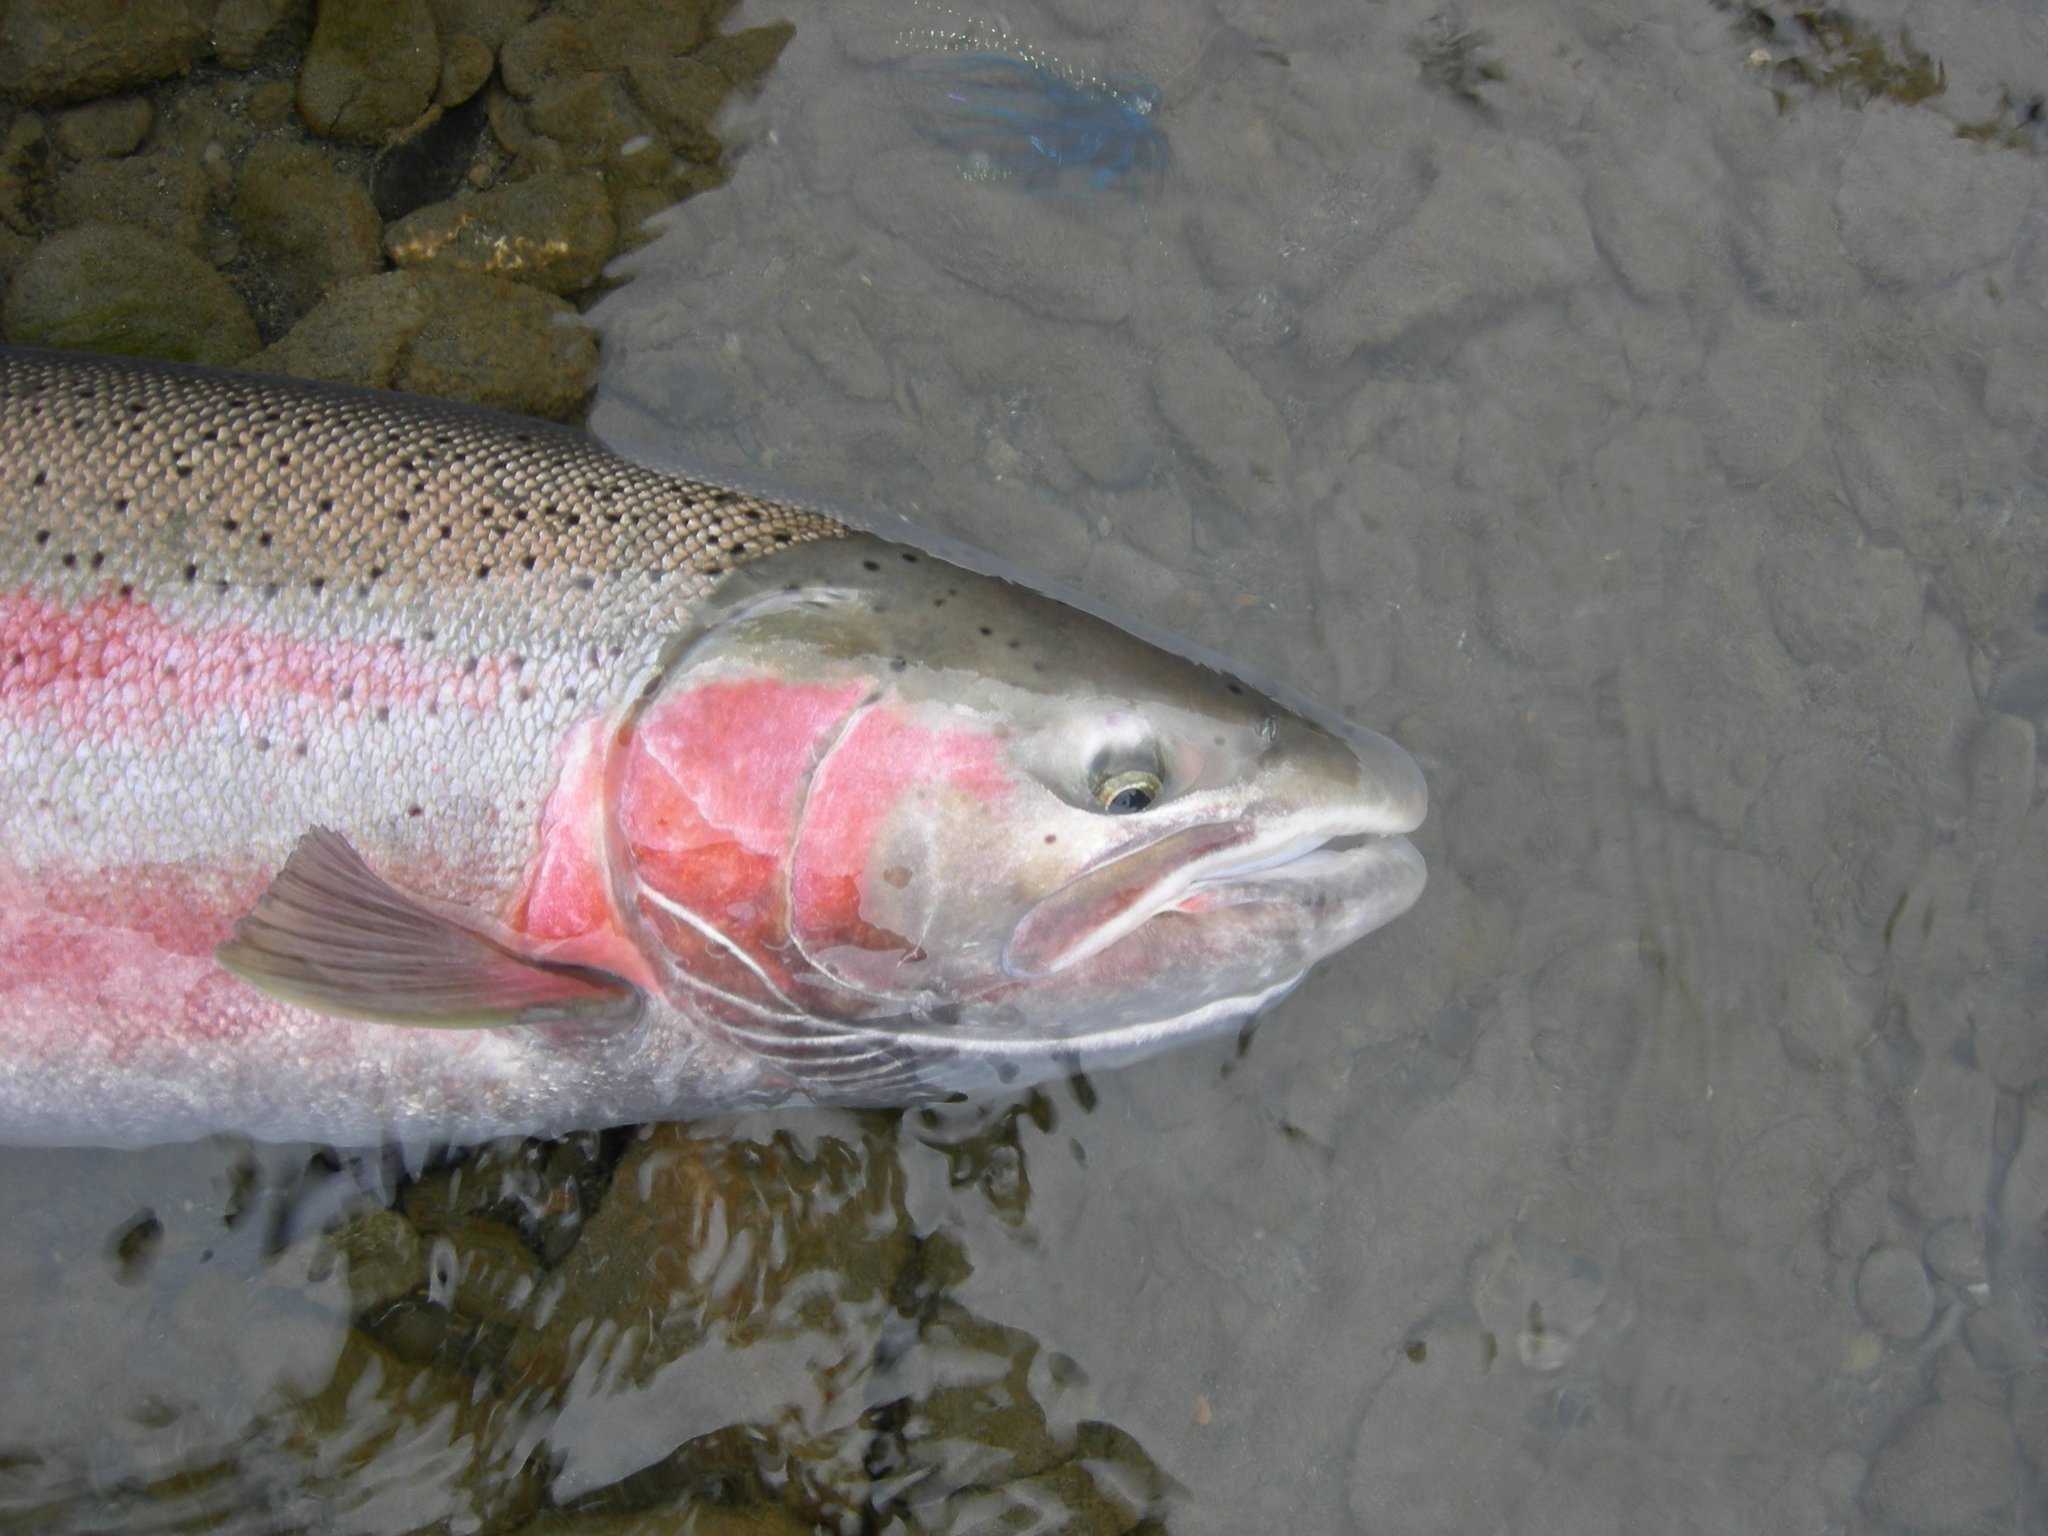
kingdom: Animalia
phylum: Chordata
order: Salmoniformes
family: Salmonidae
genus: Oncorhynchus
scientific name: Oncorhynchus mykiss
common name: Rainbow trout
